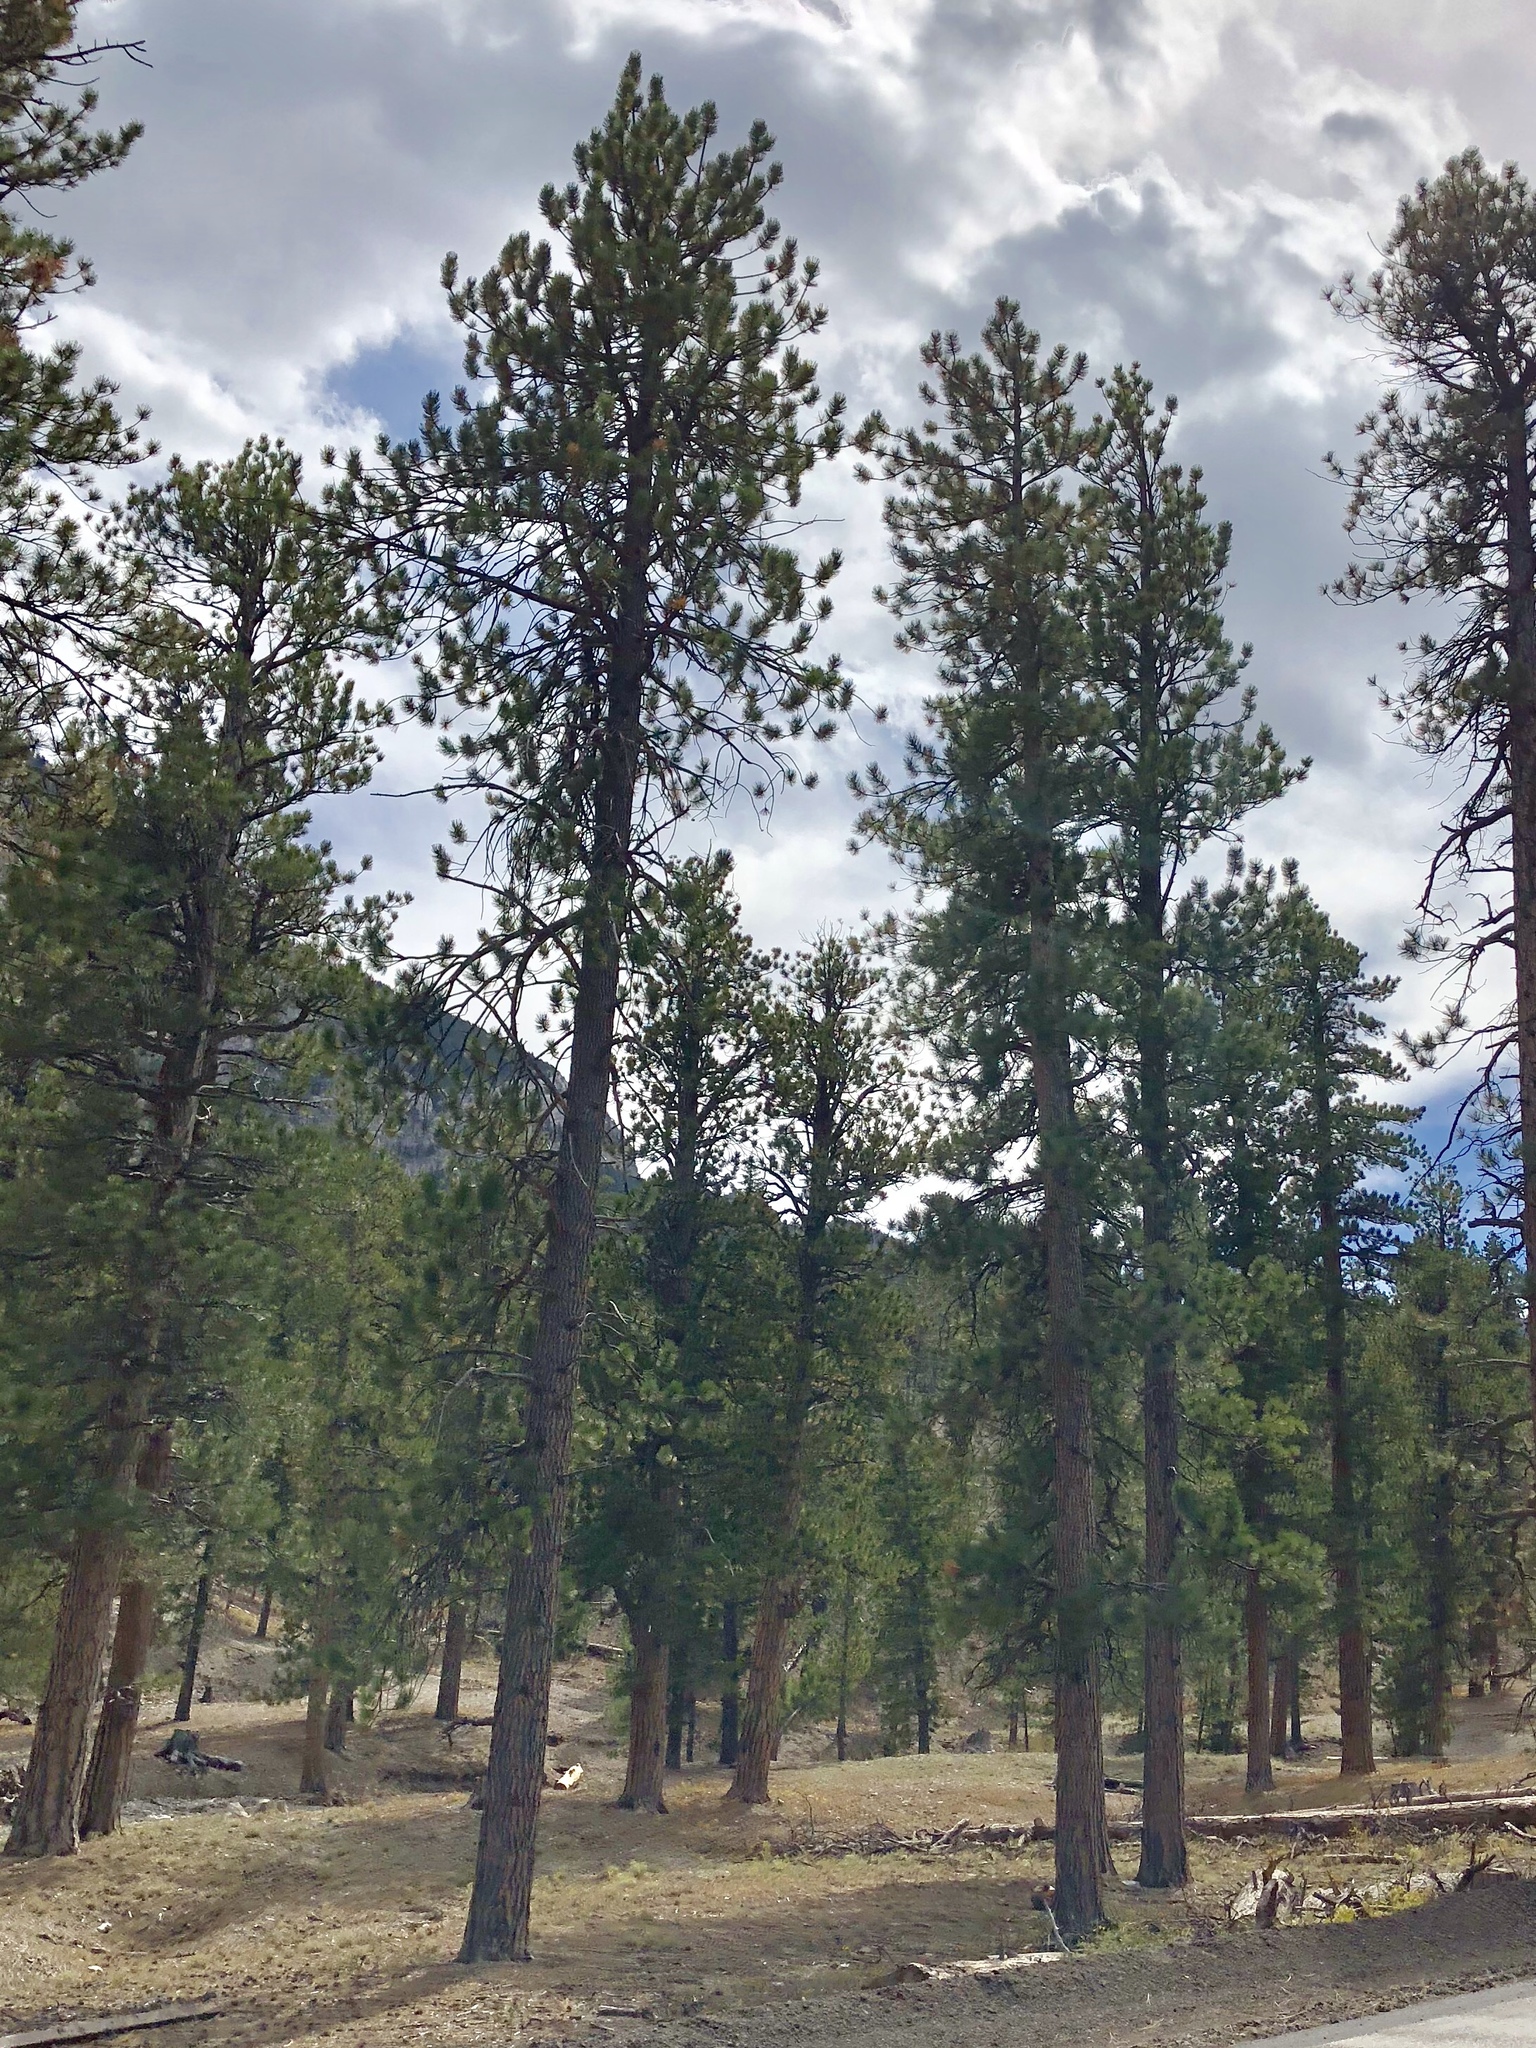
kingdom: Plantae
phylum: Tracheophyta
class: Pinopsida
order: Pinales
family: Pinaceae
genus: Pinus
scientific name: Pinus ponderosa
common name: Western yellow-pine
